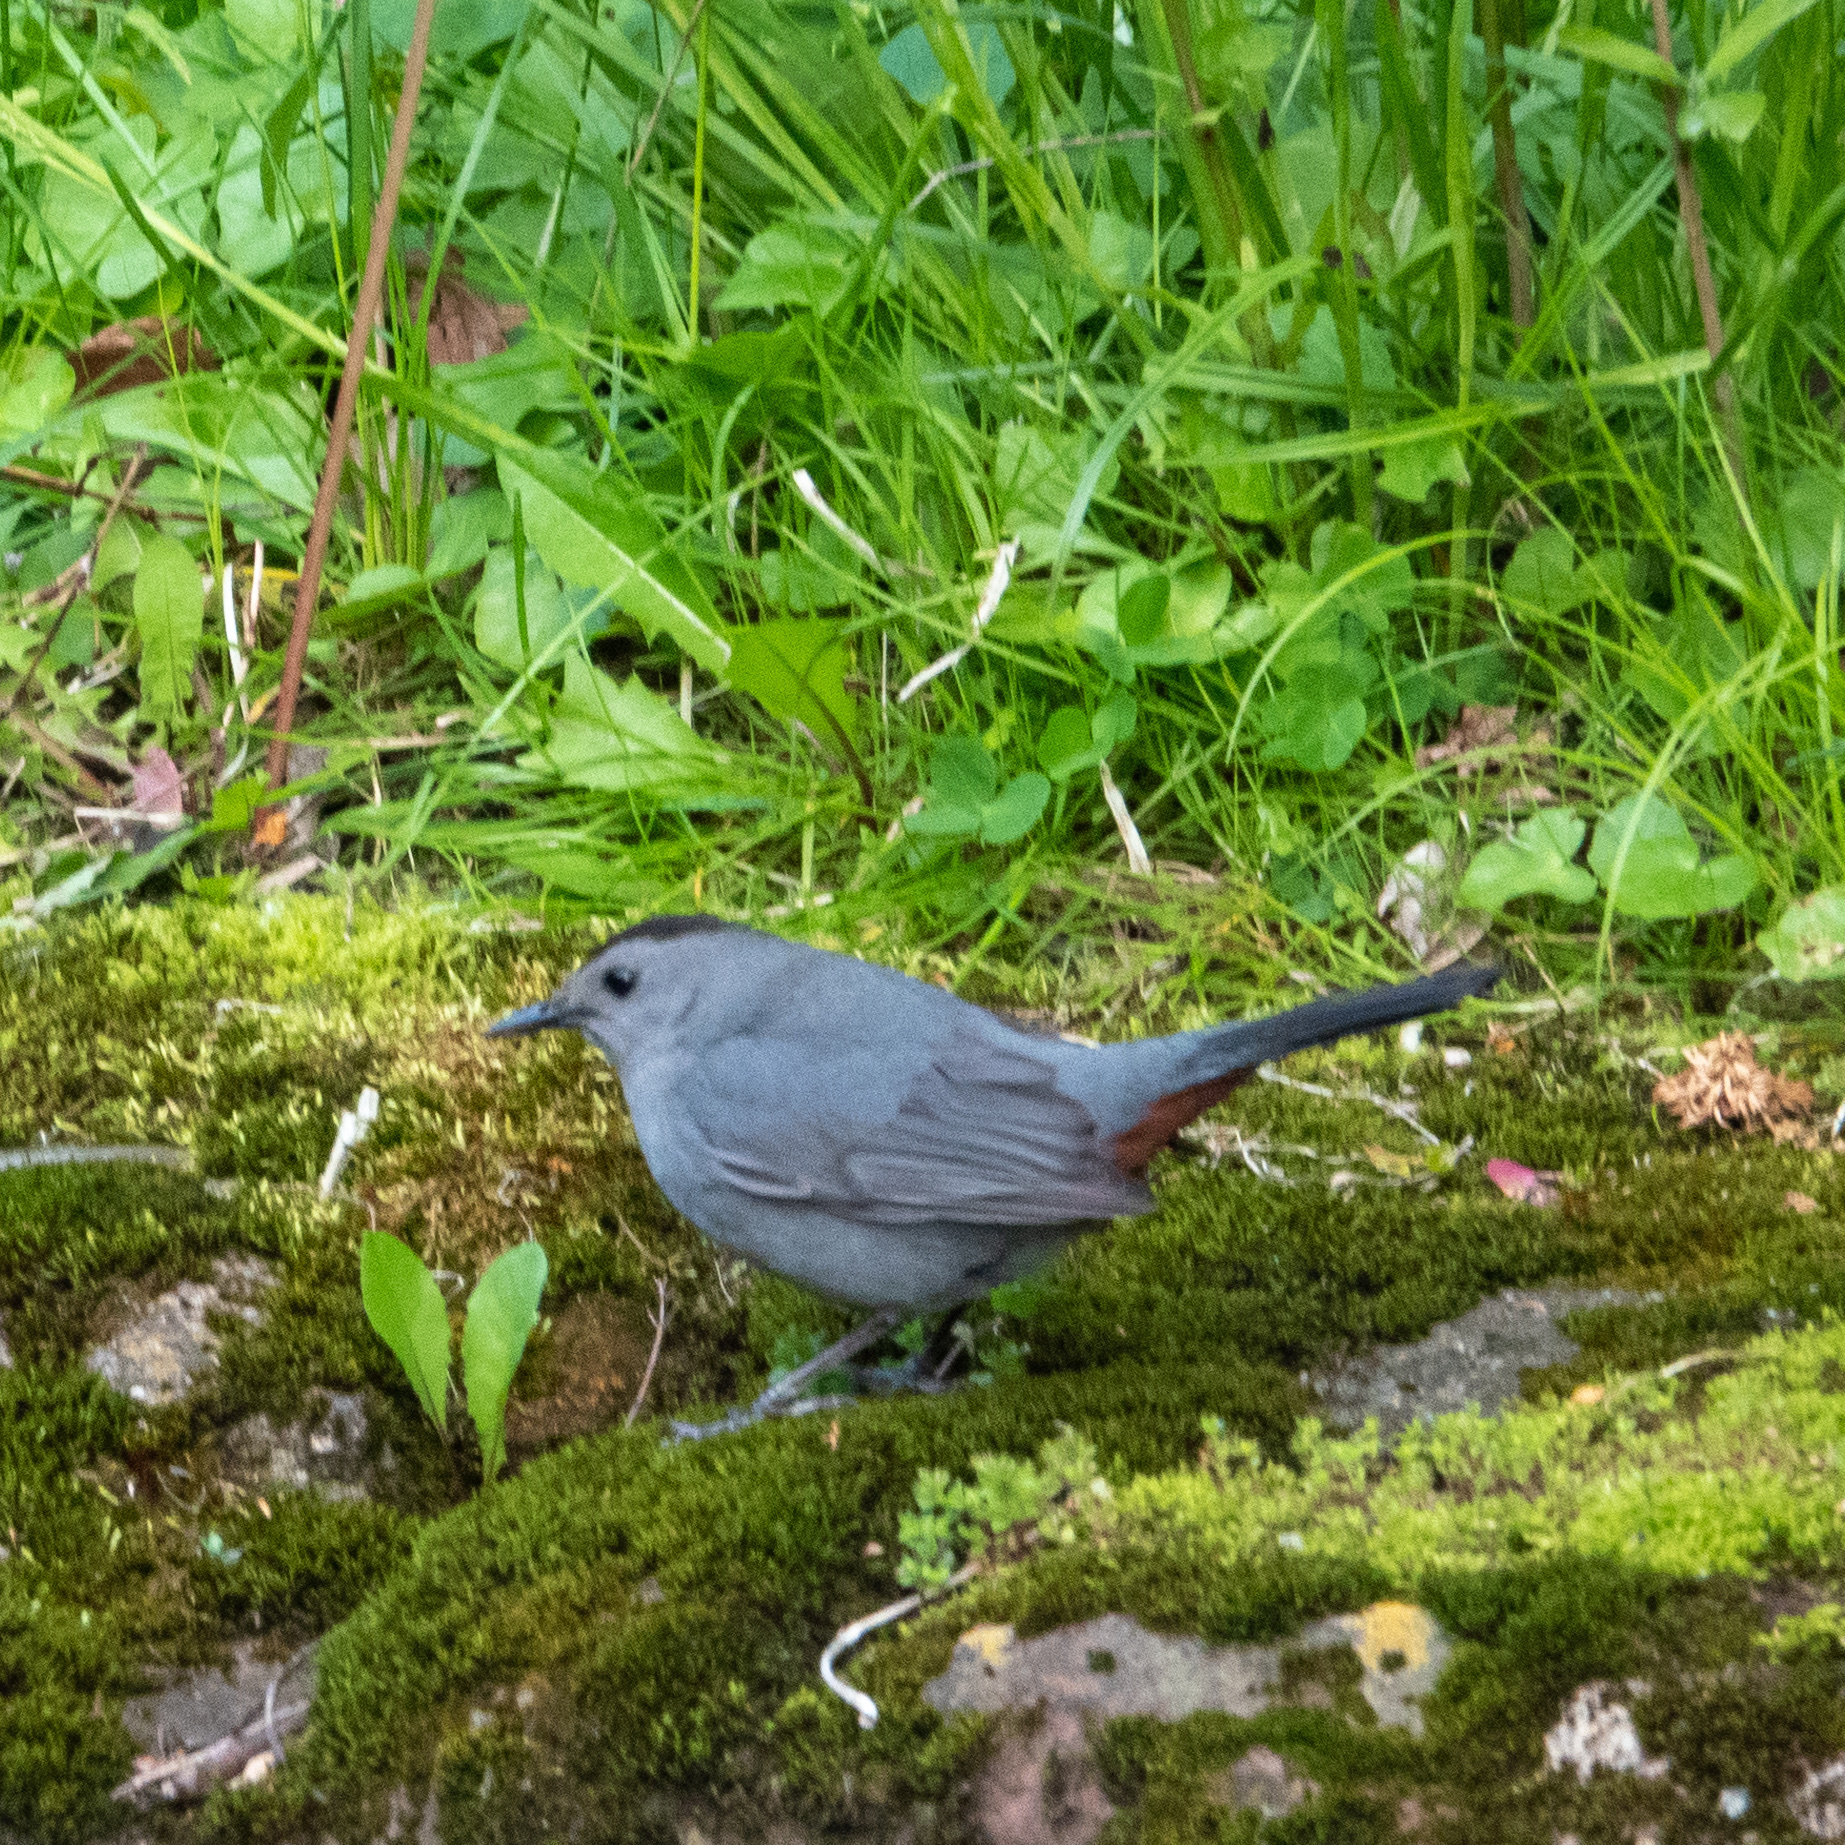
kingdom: Animalia
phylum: Chordata
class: Aves
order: Passeriformes
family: Mimidae
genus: Dumetella
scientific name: Dumetella carolinensis
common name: Gray catbird
